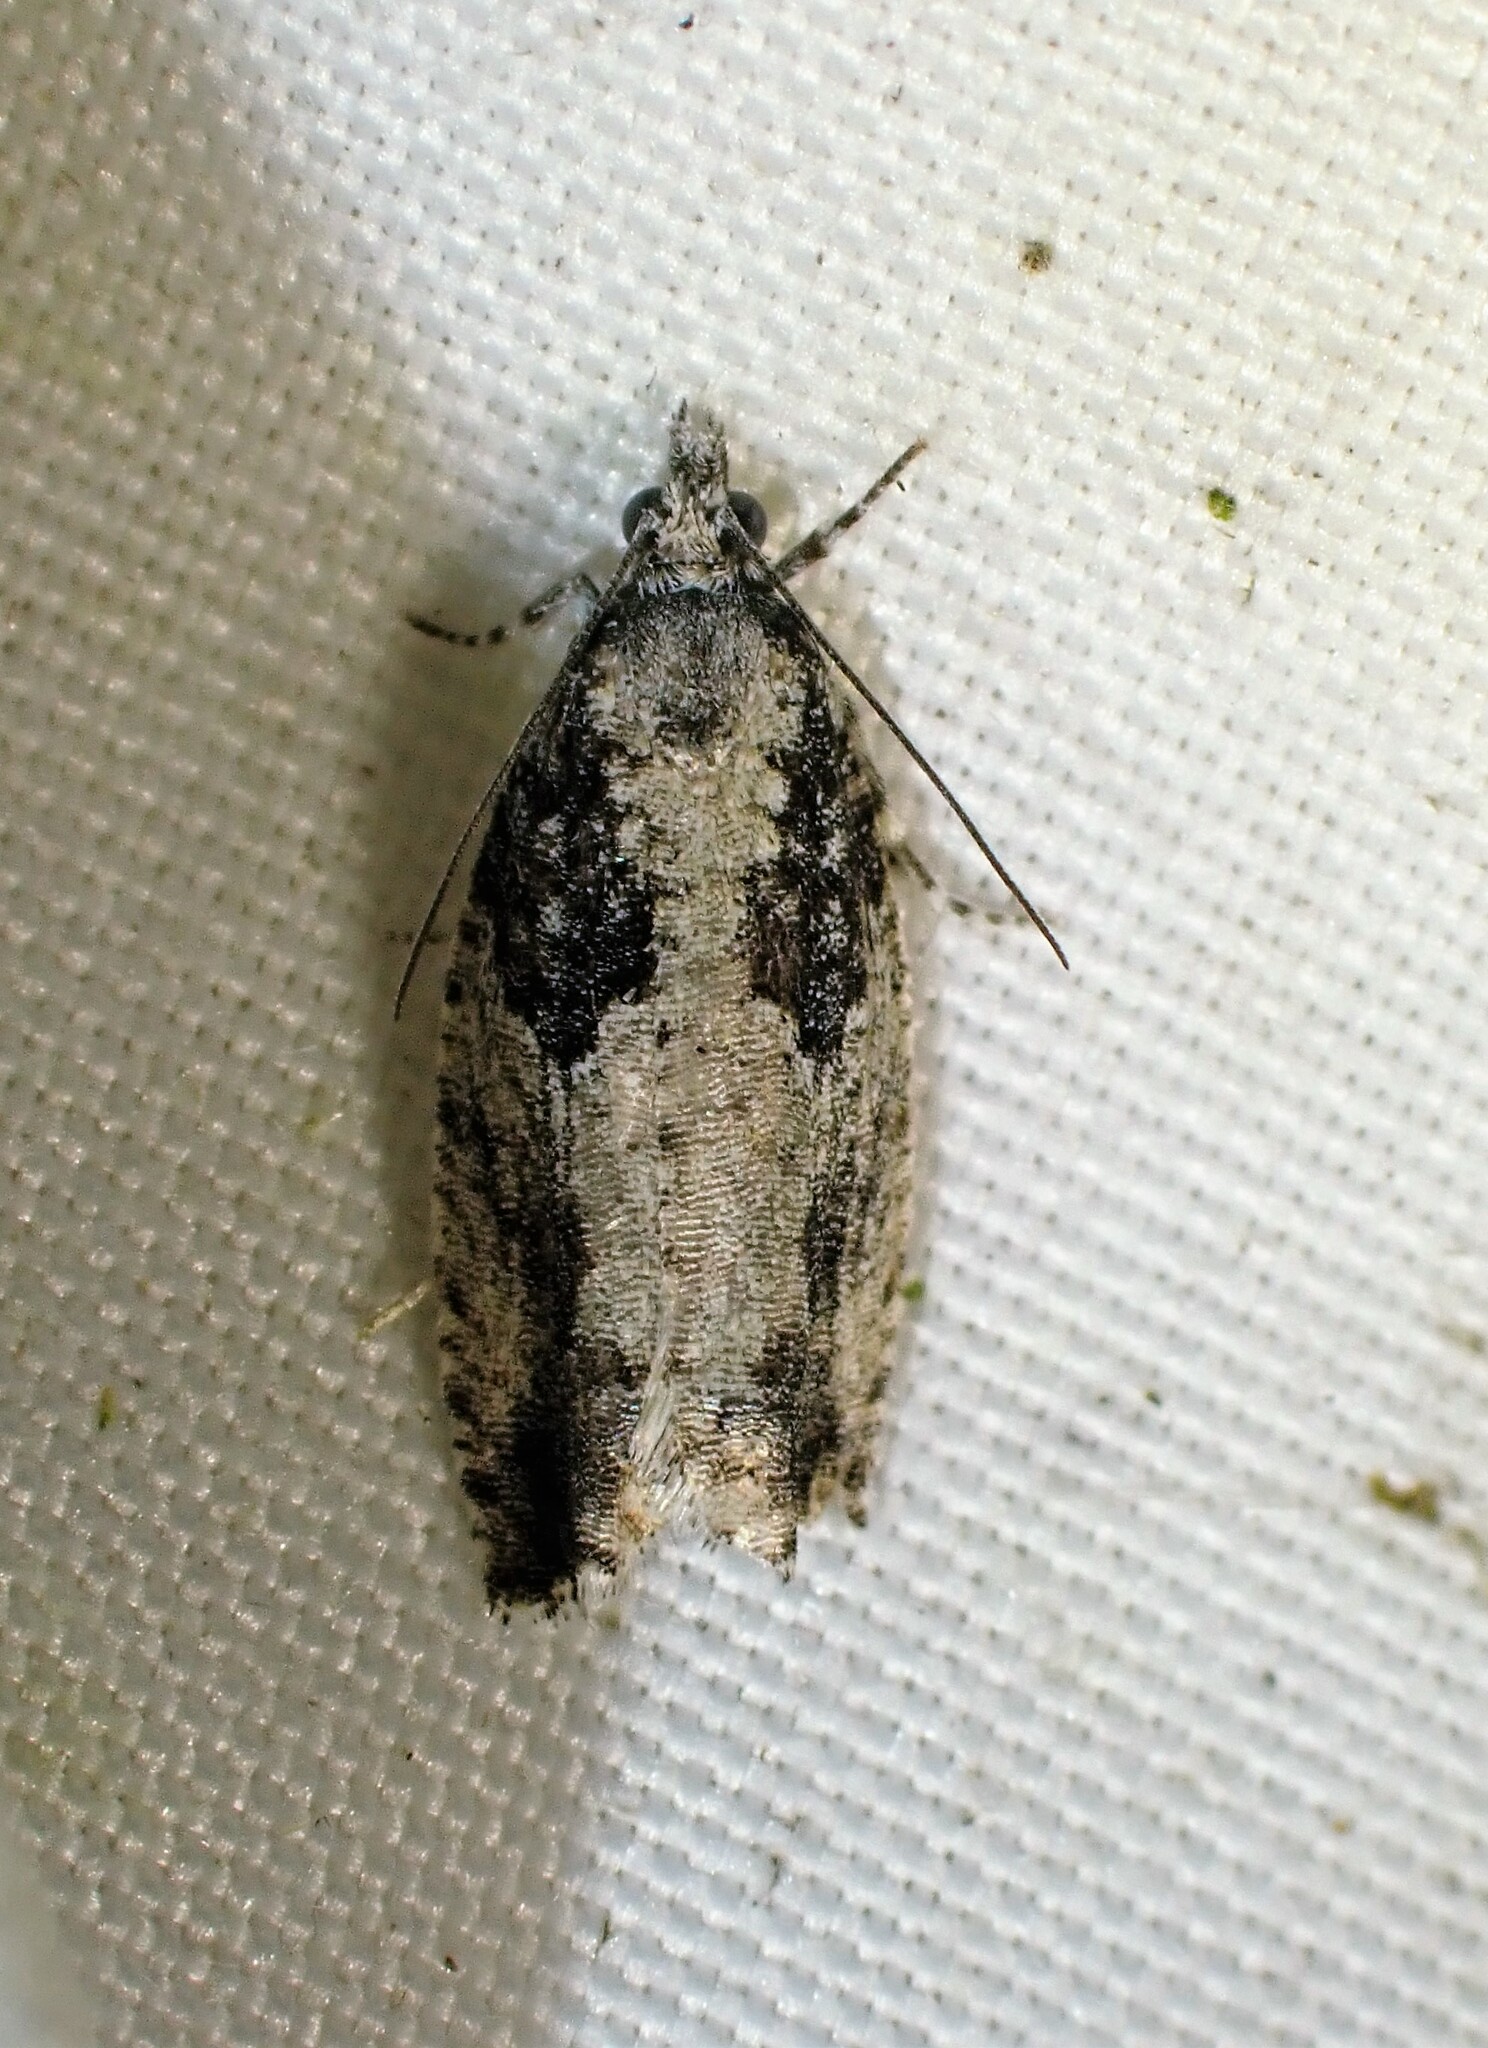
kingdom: Animalia
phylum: Arthropoda
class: Insecta
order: Lepidoptera
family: Tortricidae
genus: Epinotia
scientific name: Epinotia cinereana
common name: Grey aspen bell
